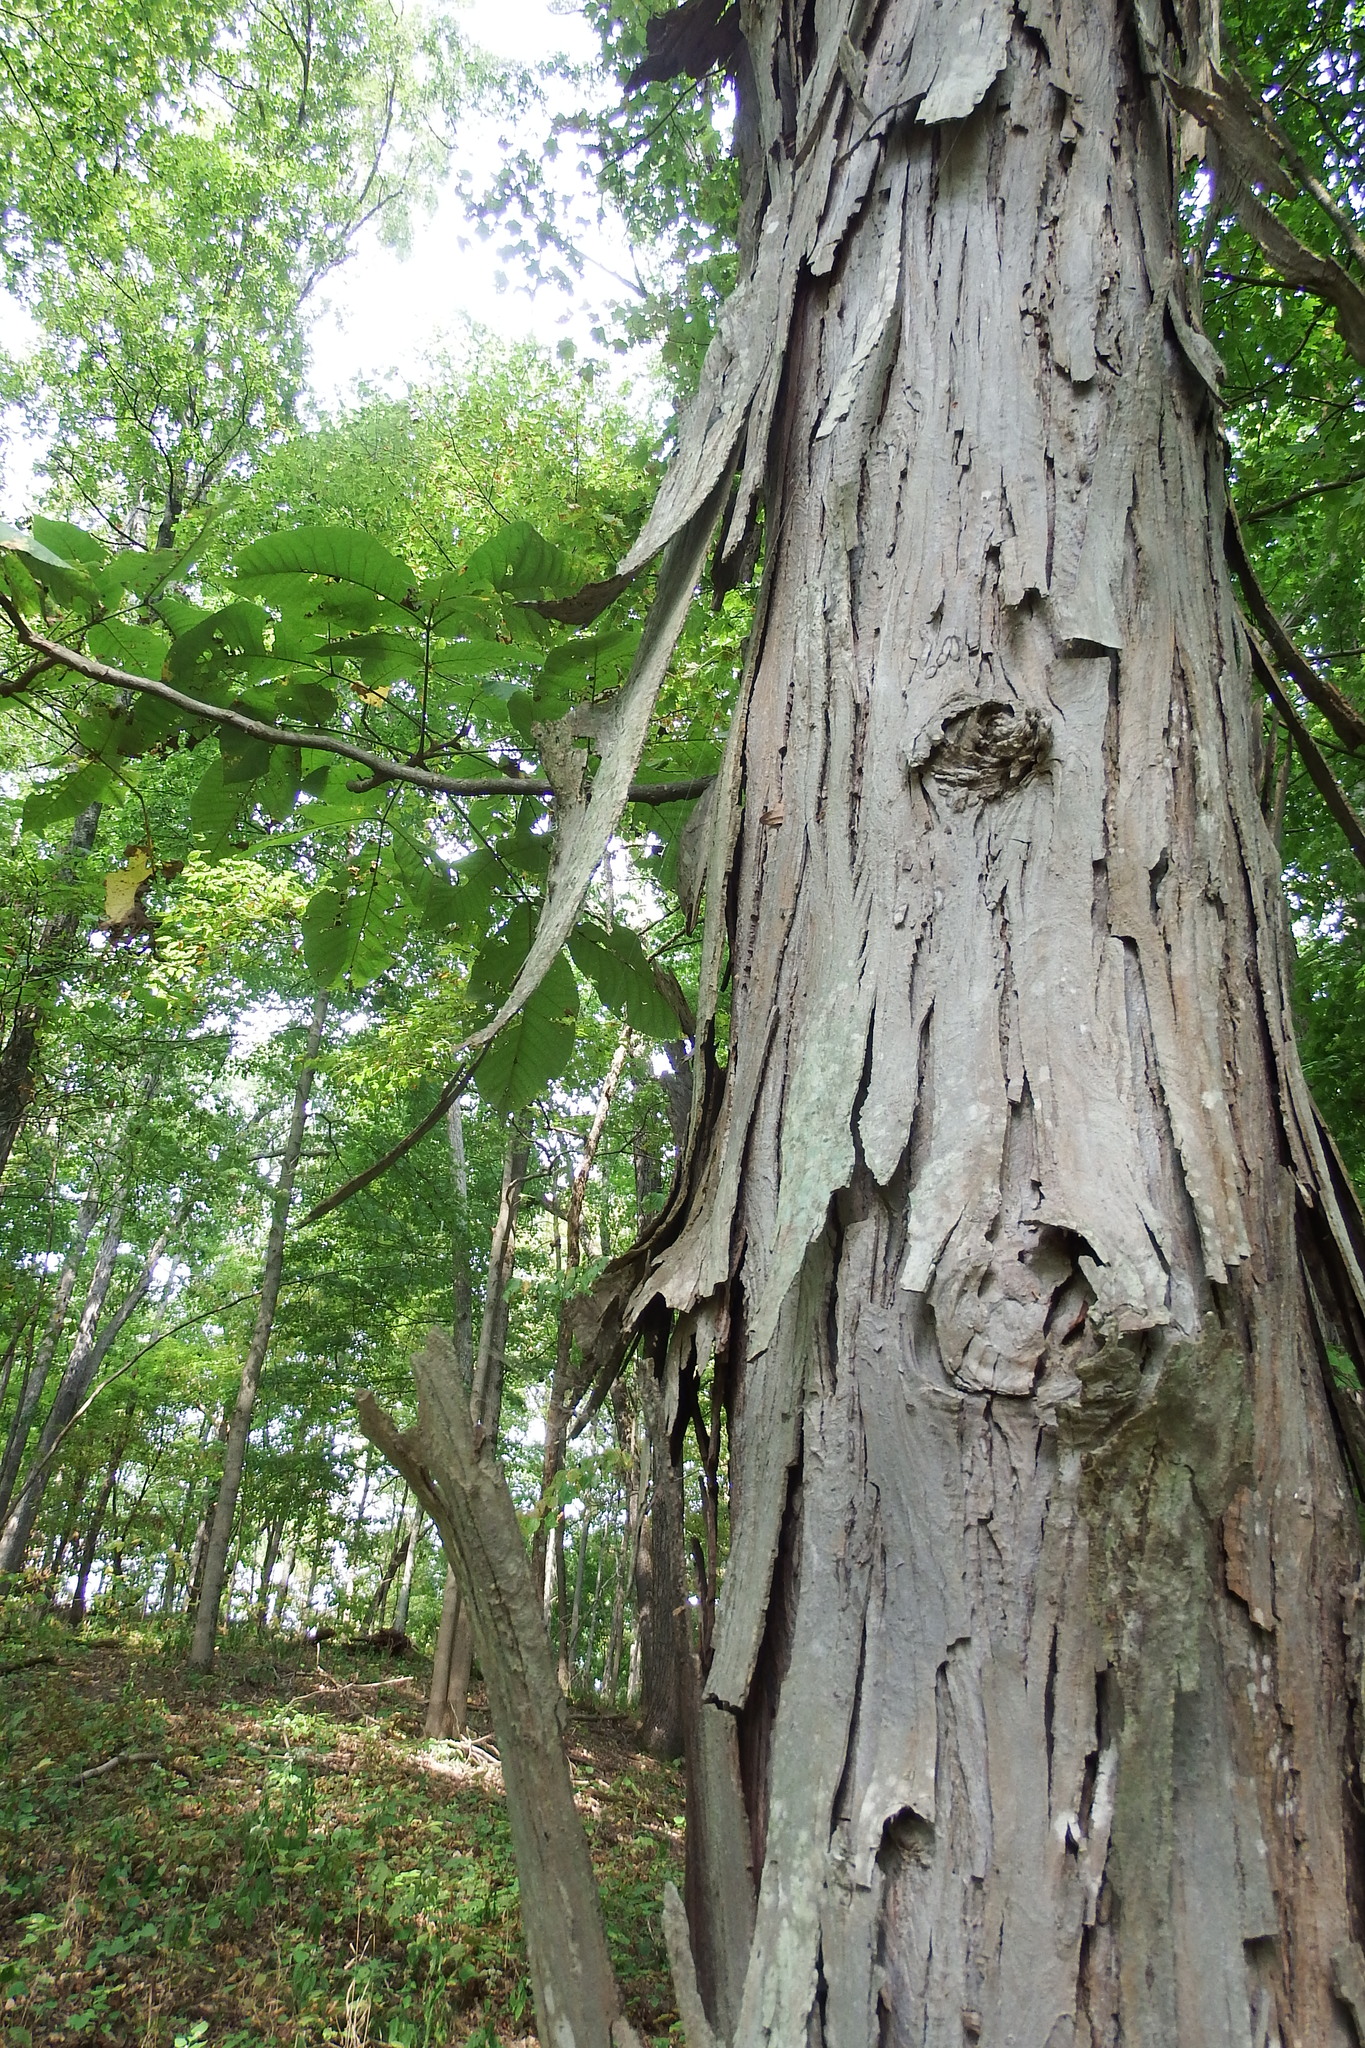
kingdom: Plantae
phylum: Tracheophyta
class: Magnoliopsida
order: Fagales
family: Juglandaceae
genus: Carya
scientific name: Carya ovata
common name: Shagbark hickory
